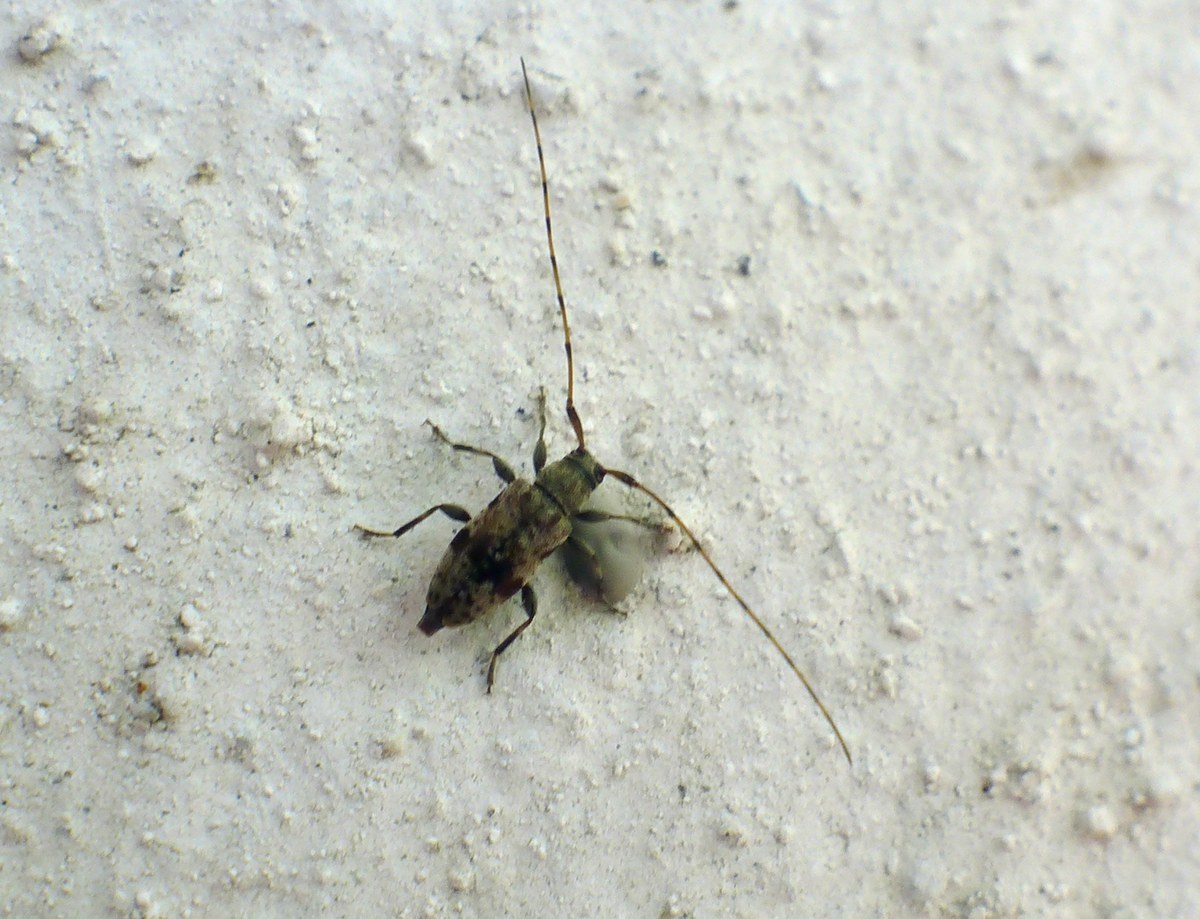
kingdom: Animalia
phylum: Arthropoda
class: Insecta
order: Coleoptera
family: Cerambycidae
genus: Leiopus
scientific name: Leiopus femoratus
